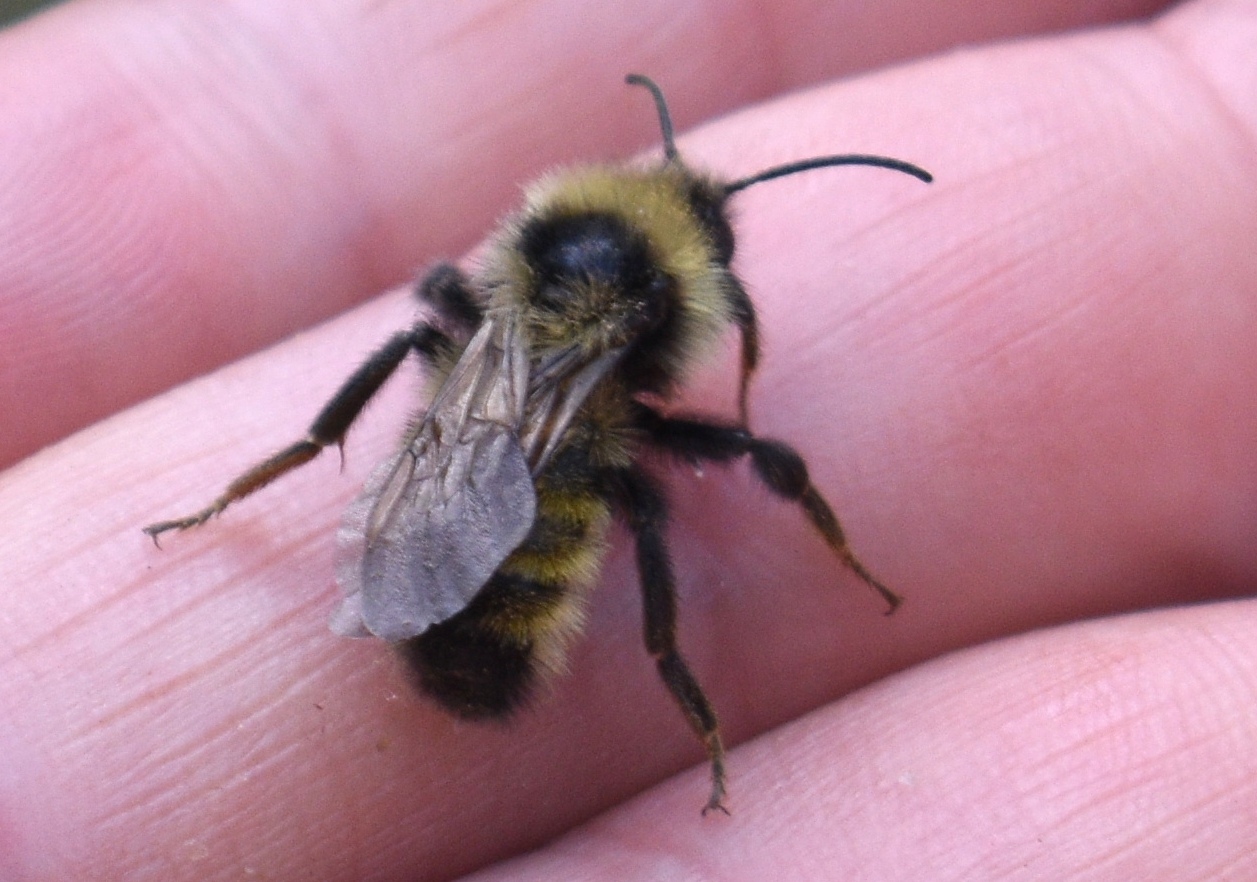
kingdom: Animalia
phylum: Arthropoda
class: Insecta
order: Hymenoptera
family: Apidae
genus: Bombus
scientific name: Bombus
